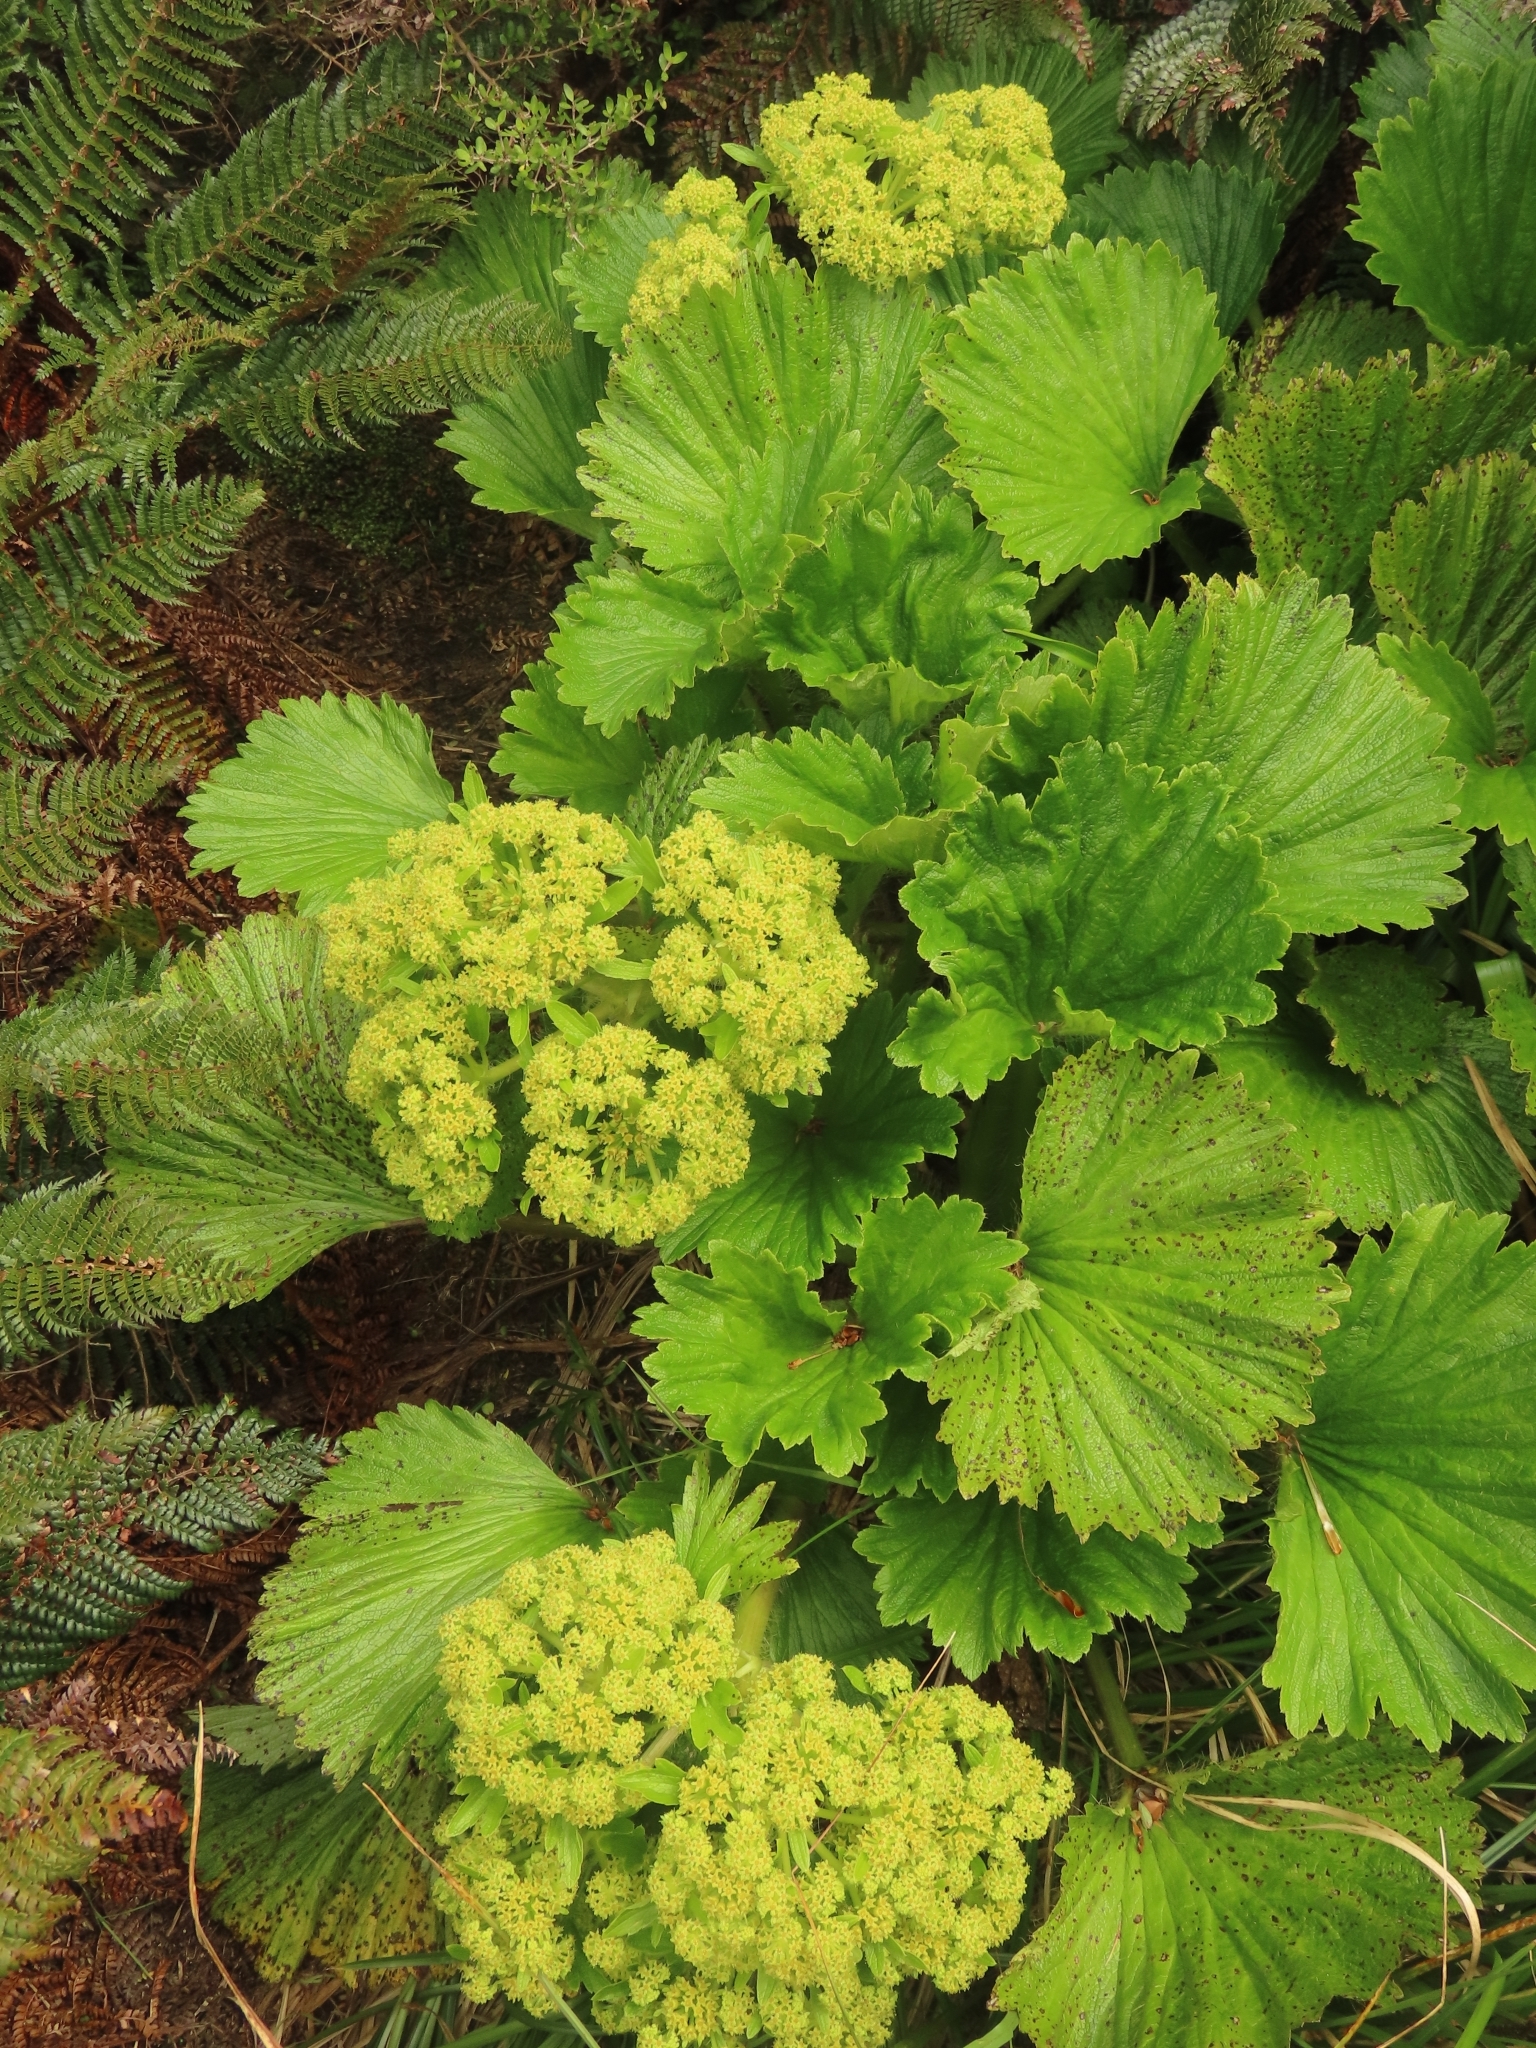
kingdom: Plantae
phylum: Tracheophyta
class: Magnoliopsida
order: Apiales
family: Apiaceae
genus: Azorella
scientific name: Azorella polaris
